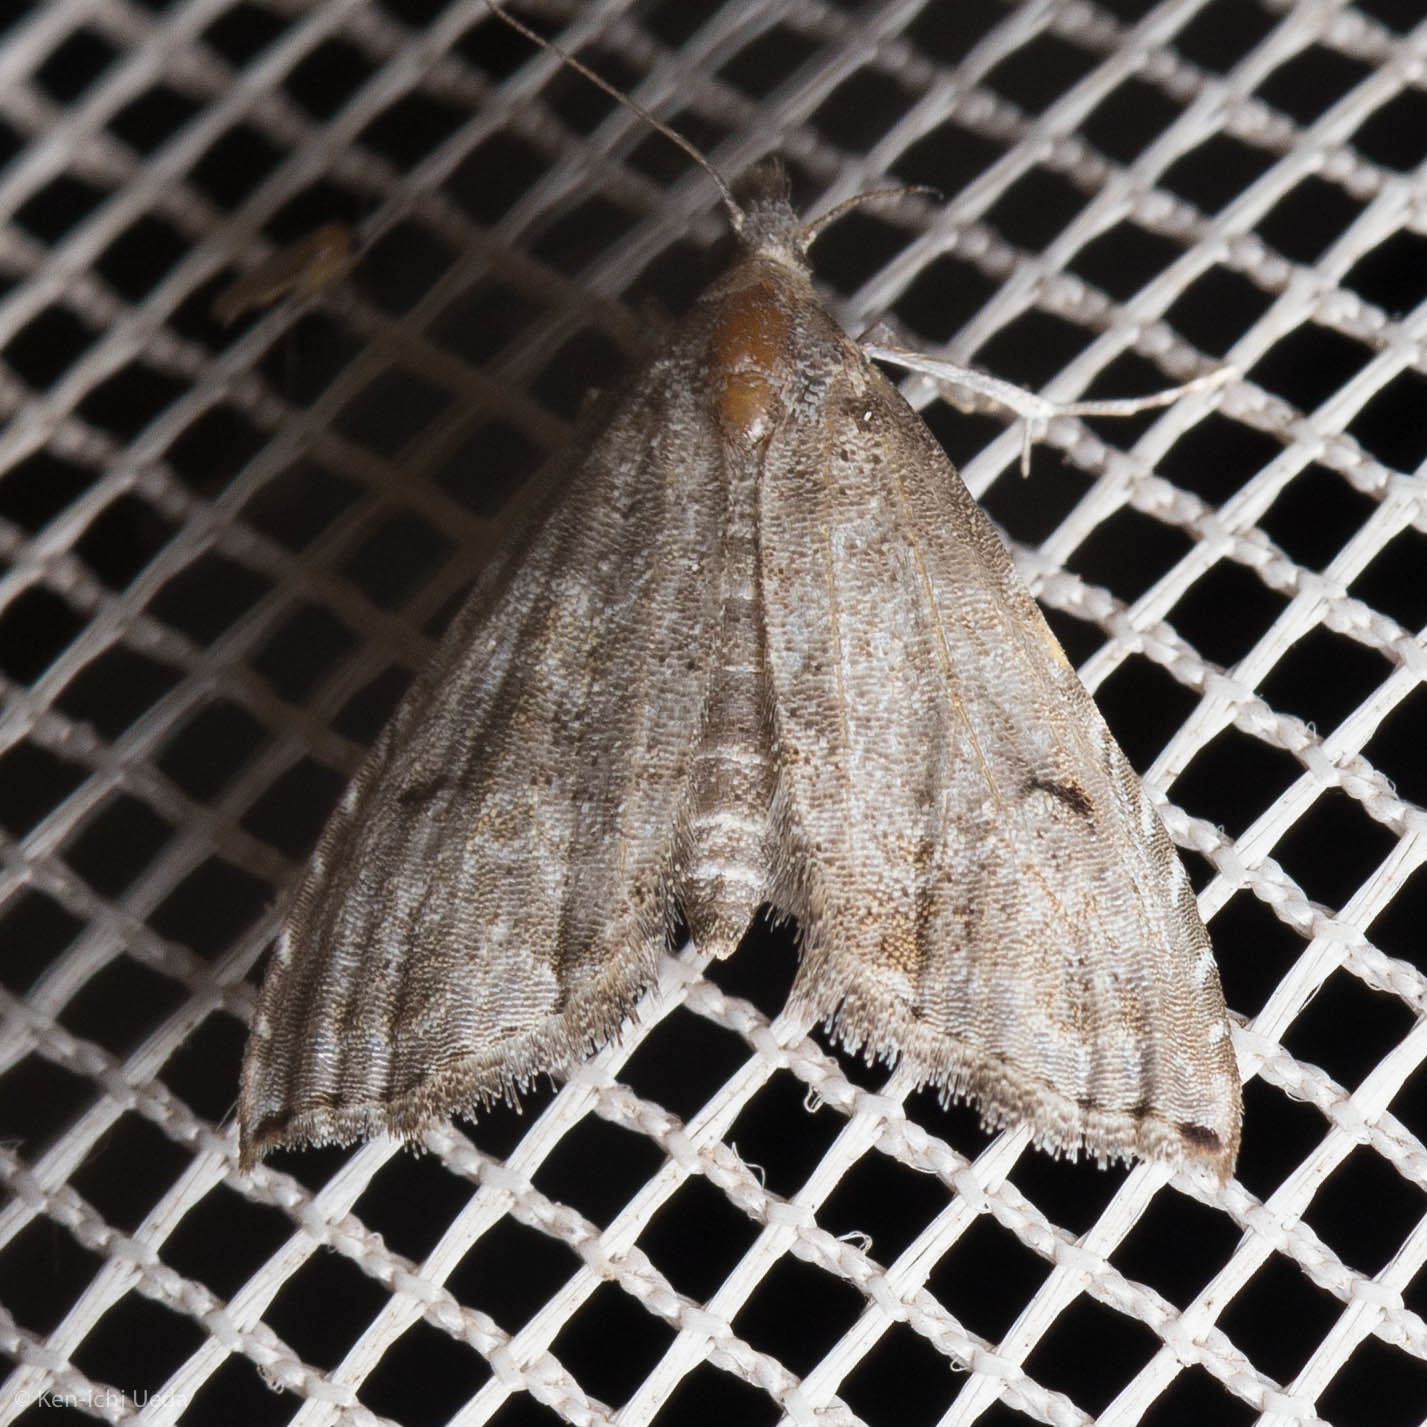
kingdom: Animalia
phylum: Arthropoda
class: Insecta
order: Lepidoptera
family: Noctuidae
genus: Phobolosia
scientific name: Phobolosia anfracta
